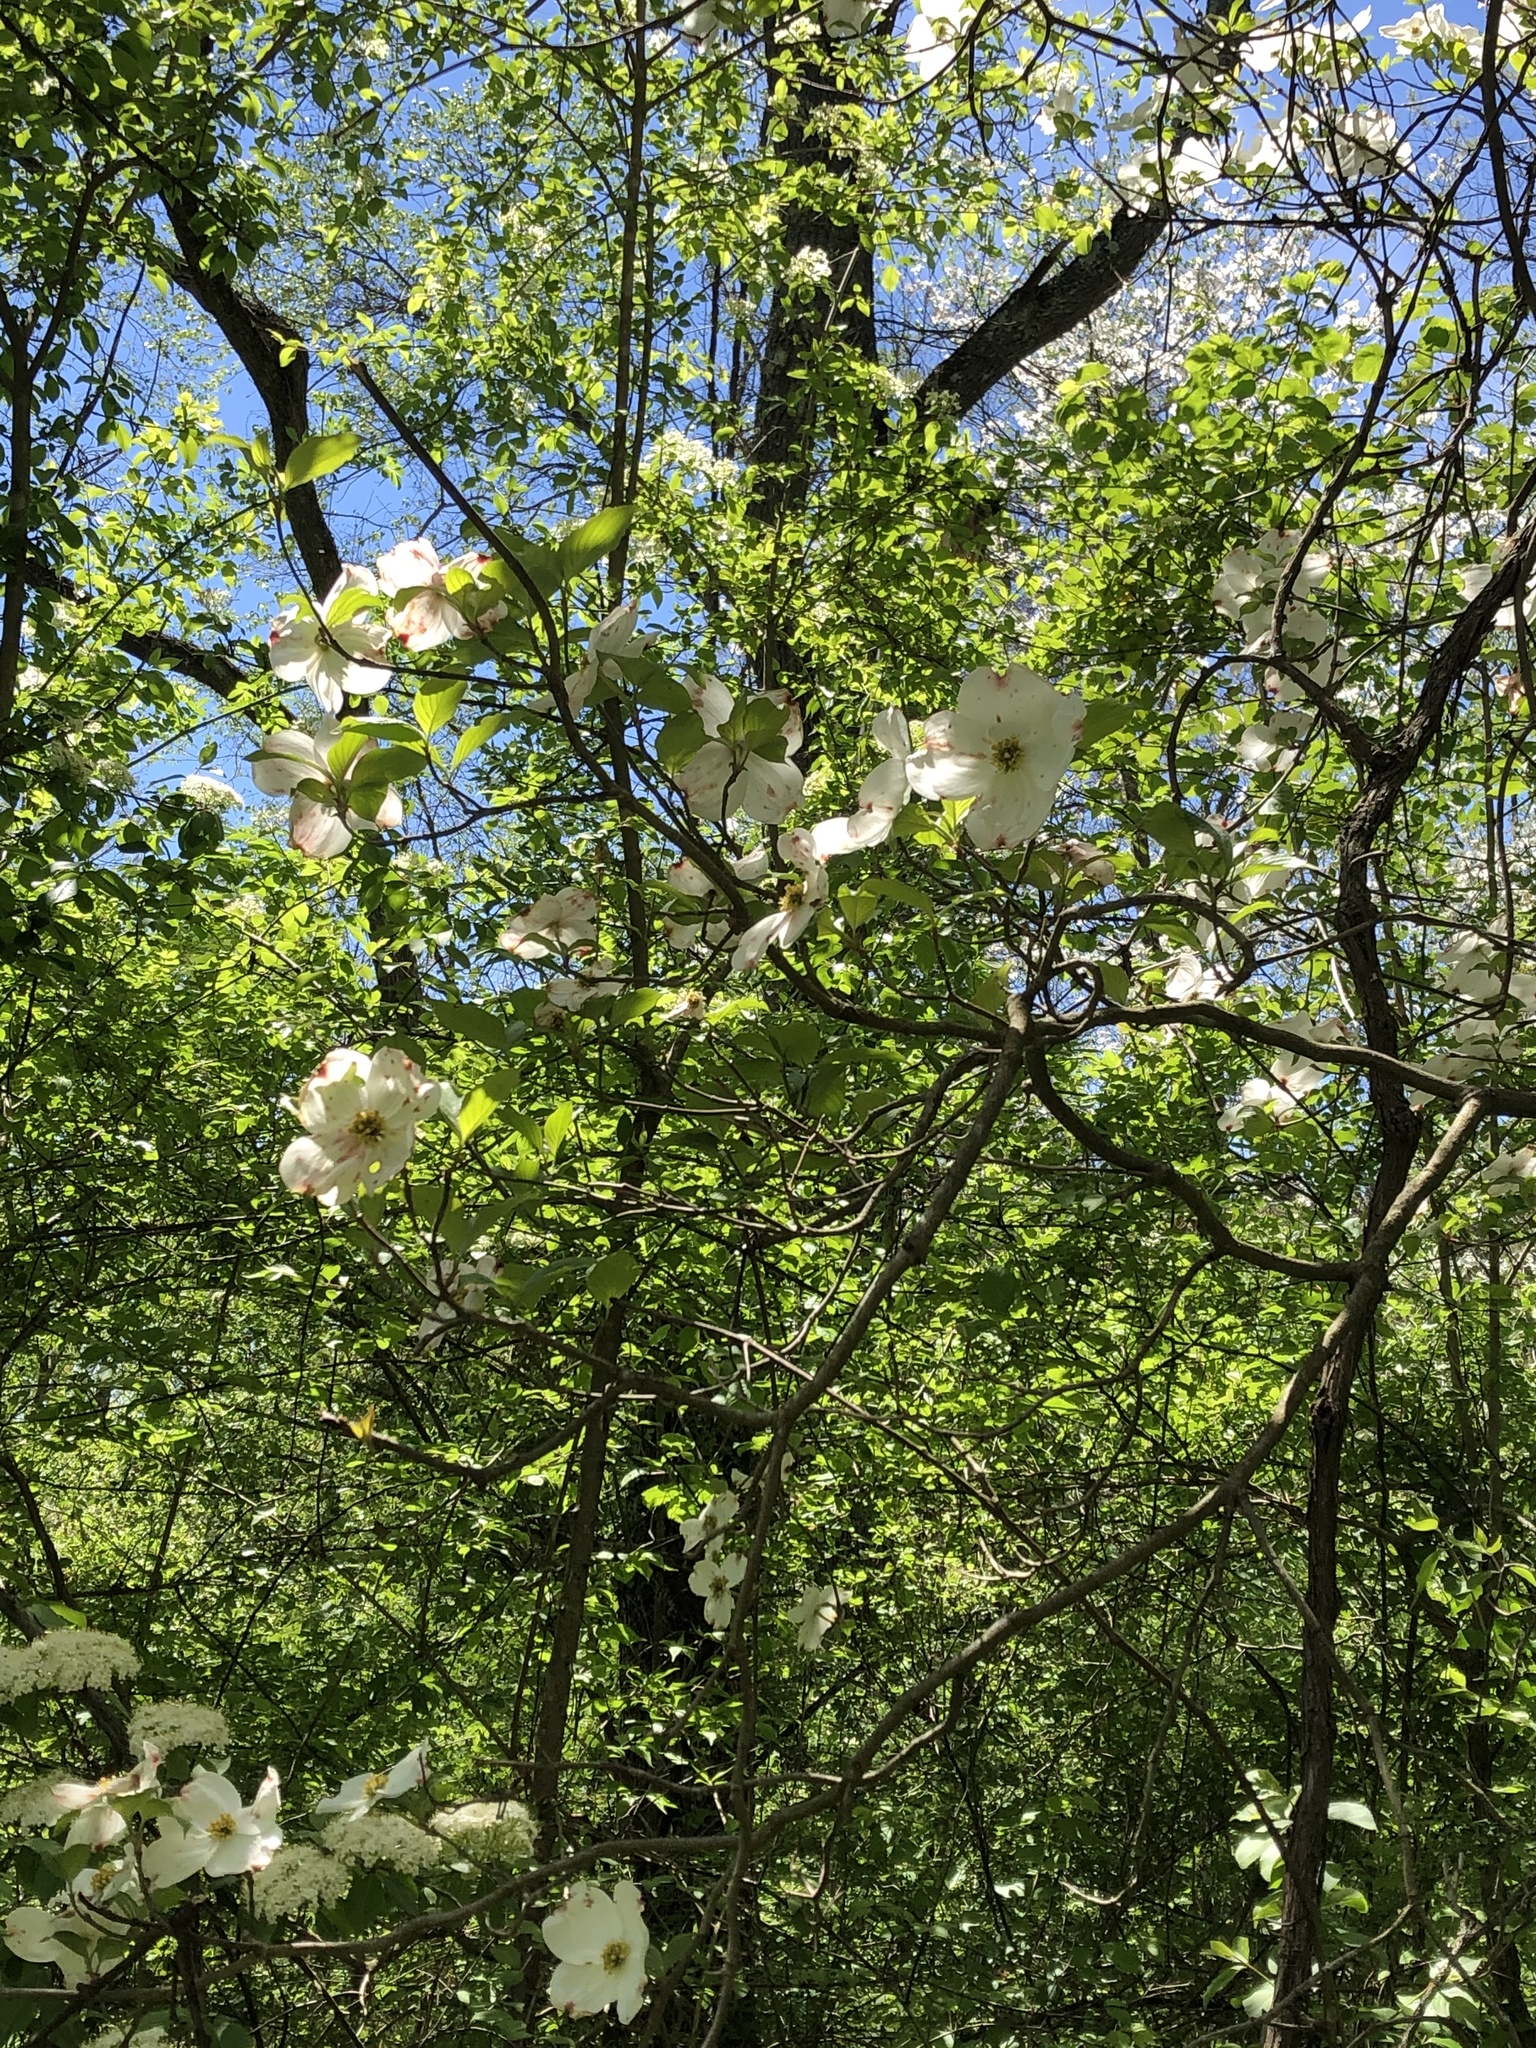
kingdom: Plantae
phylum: Tracheophyta
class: Magnoliopsida
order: Cornales
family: Cornaceae
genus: Cornus
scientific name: Cornus florida
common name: Flowering dogwood
